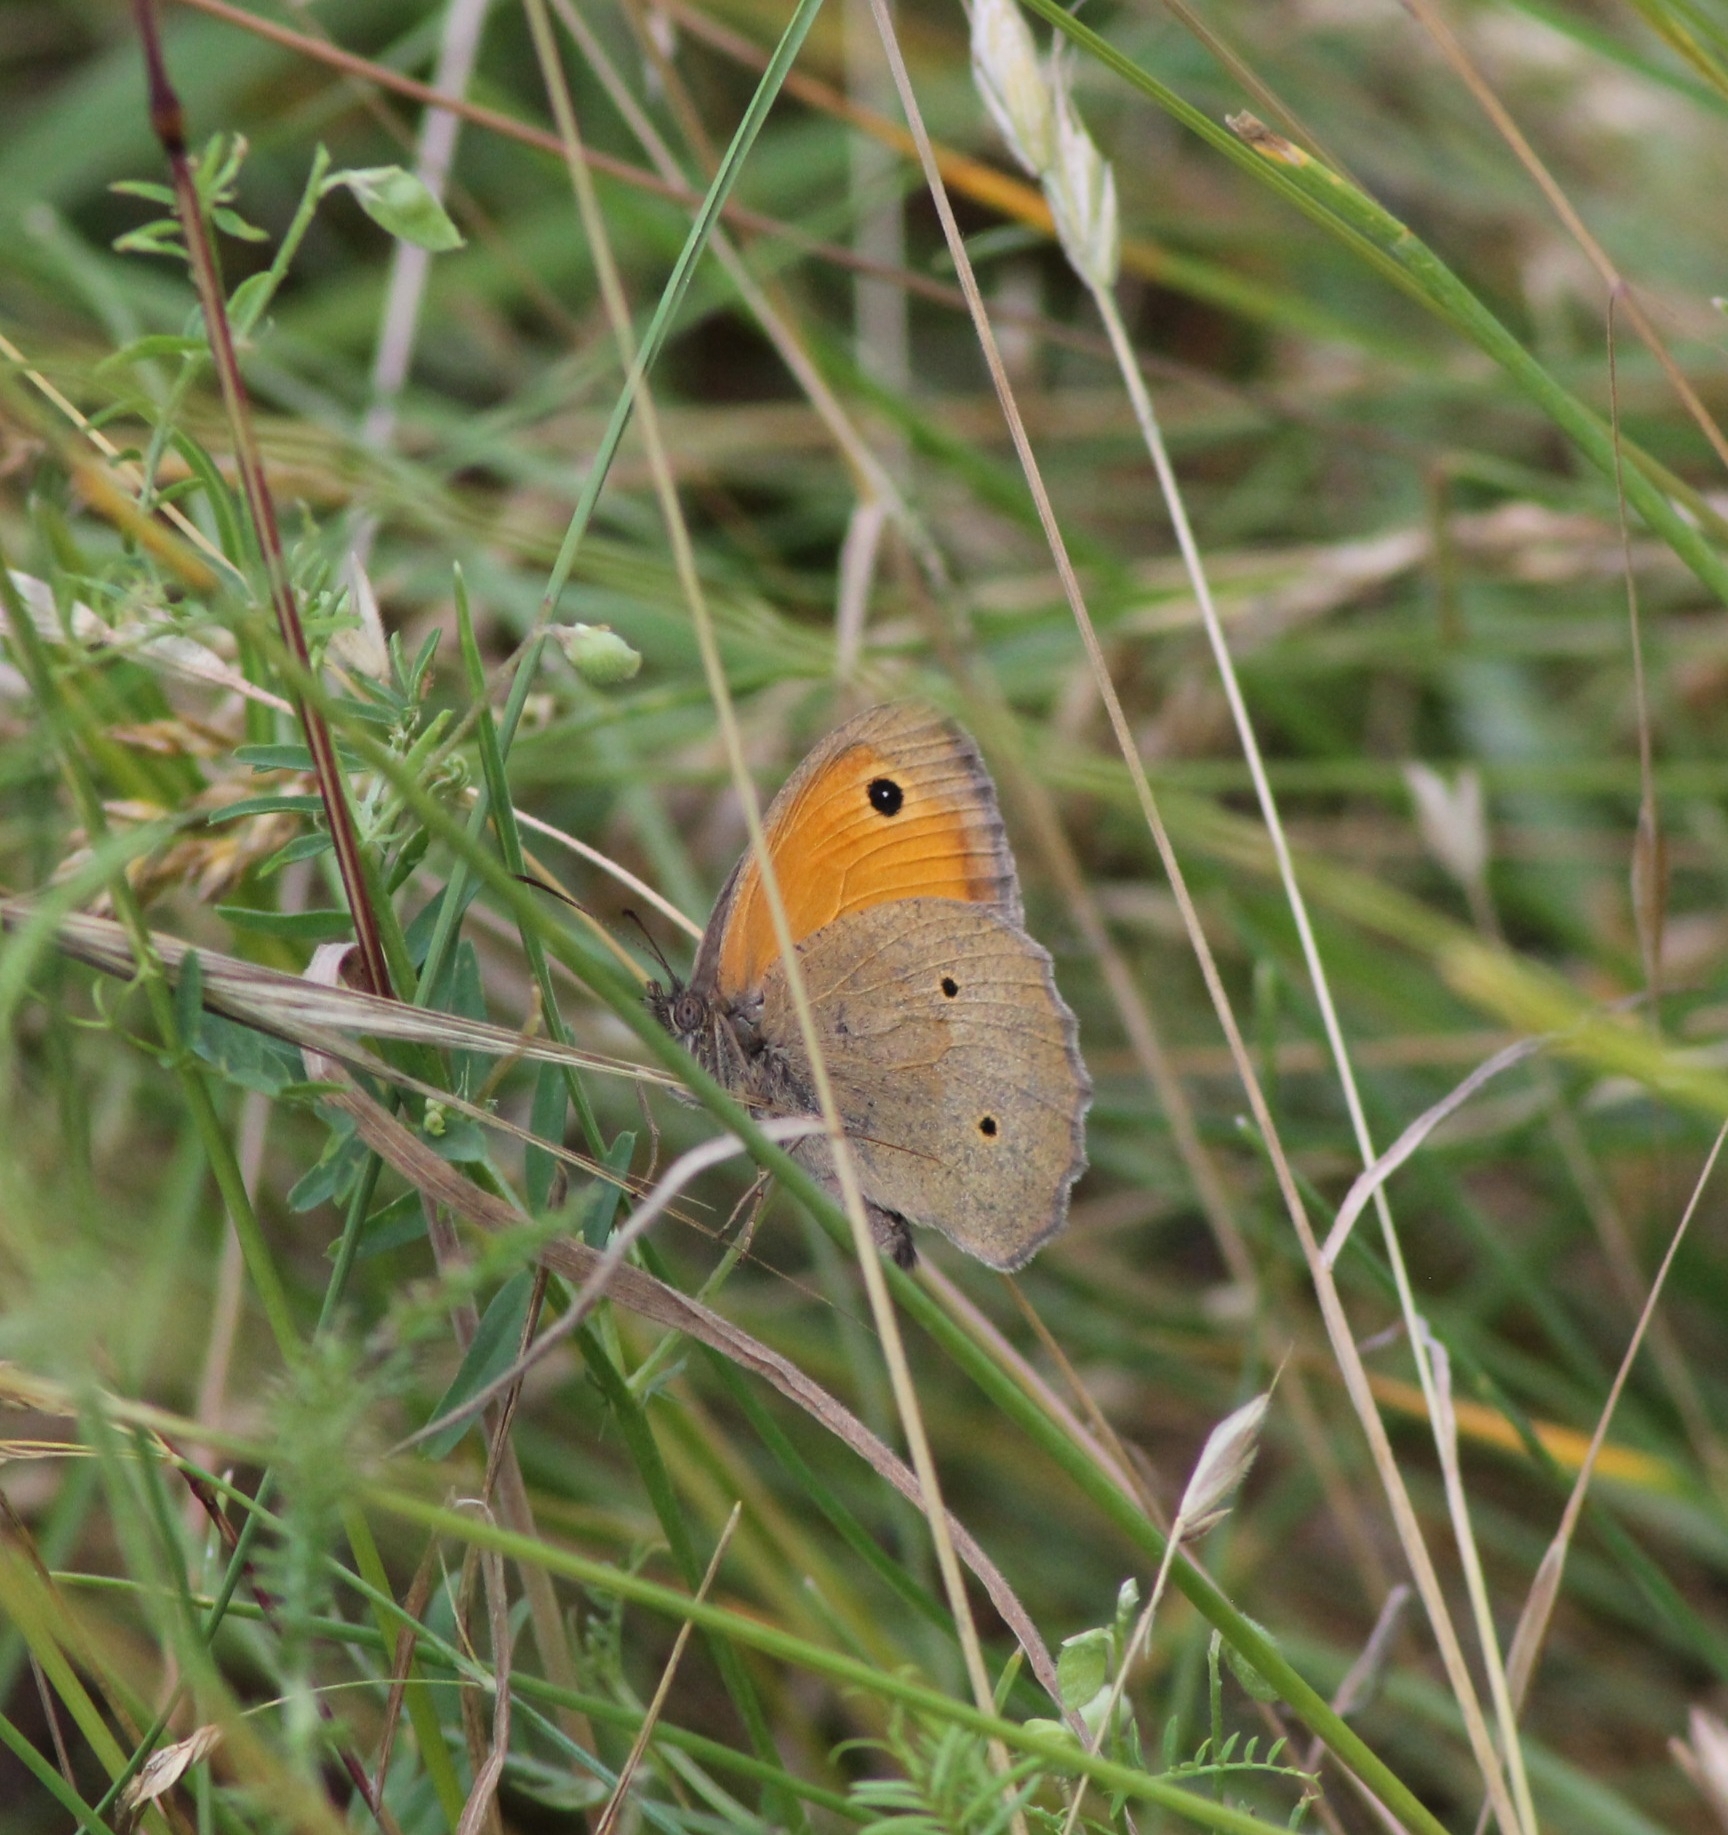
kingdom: Animalia
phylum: Arthropoda
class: Insecta
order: Lepidoptera
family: Nymphalidae
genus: Maniola
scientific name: Maniola jurtina
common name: Meadow brown
